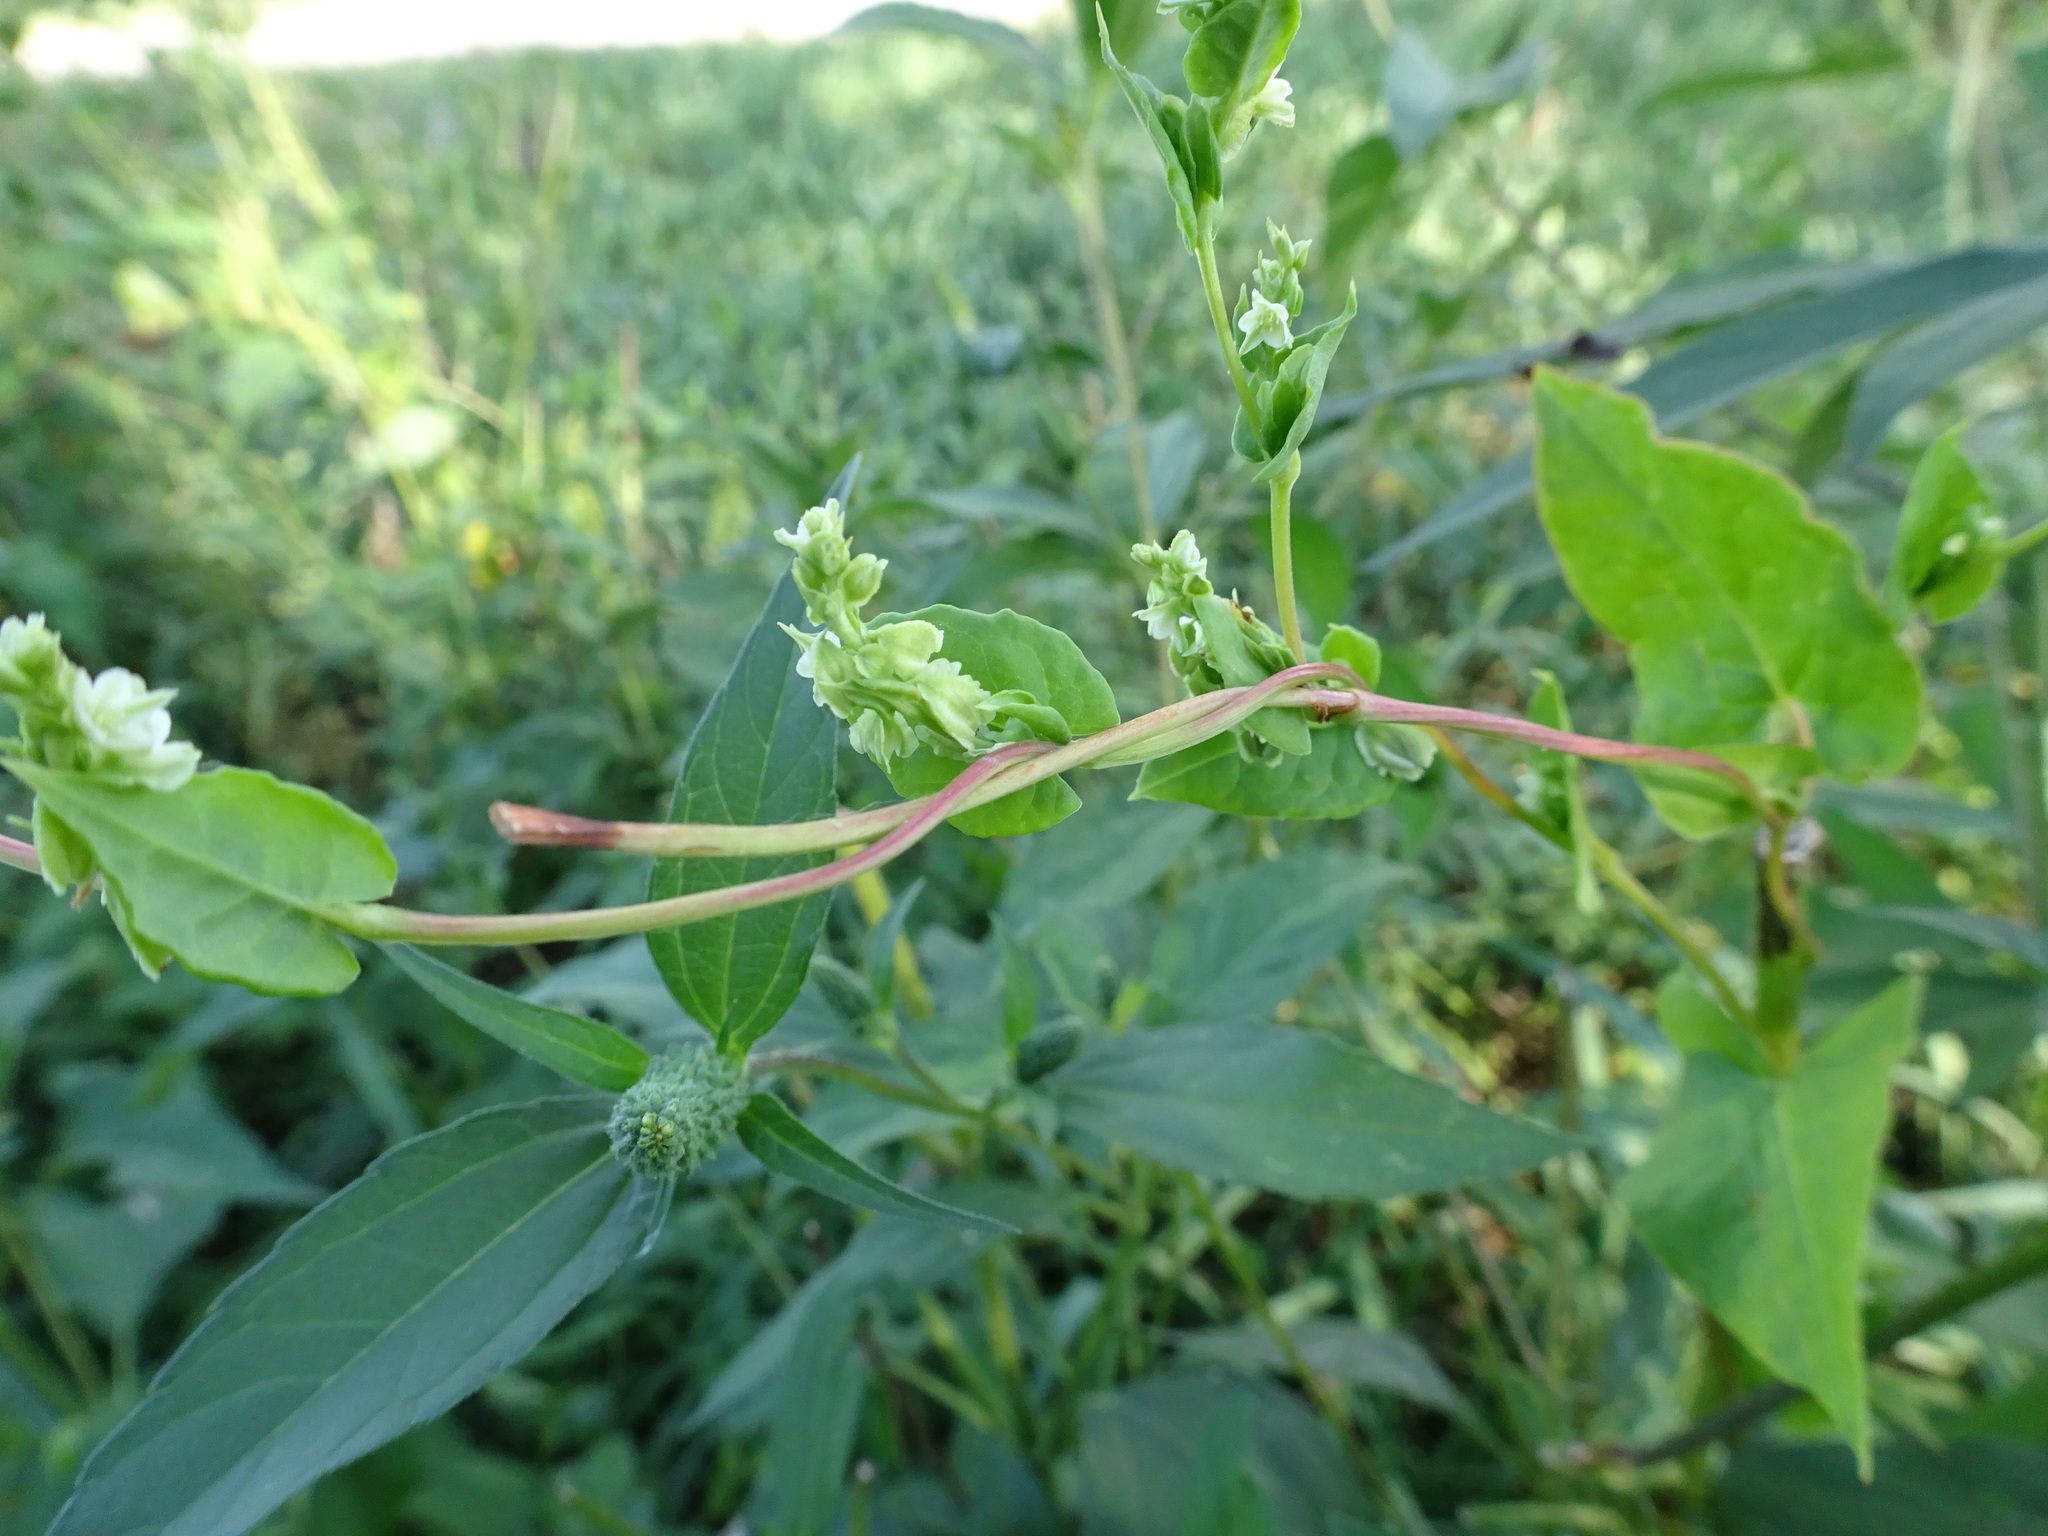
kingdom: Plantae
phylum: Tracheophyta
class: Magnoliopsida
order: Caryophyllales
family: Polygonaceae
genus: Fallopia
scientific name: Fallopia scandens
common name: Climbing false buckwheat
